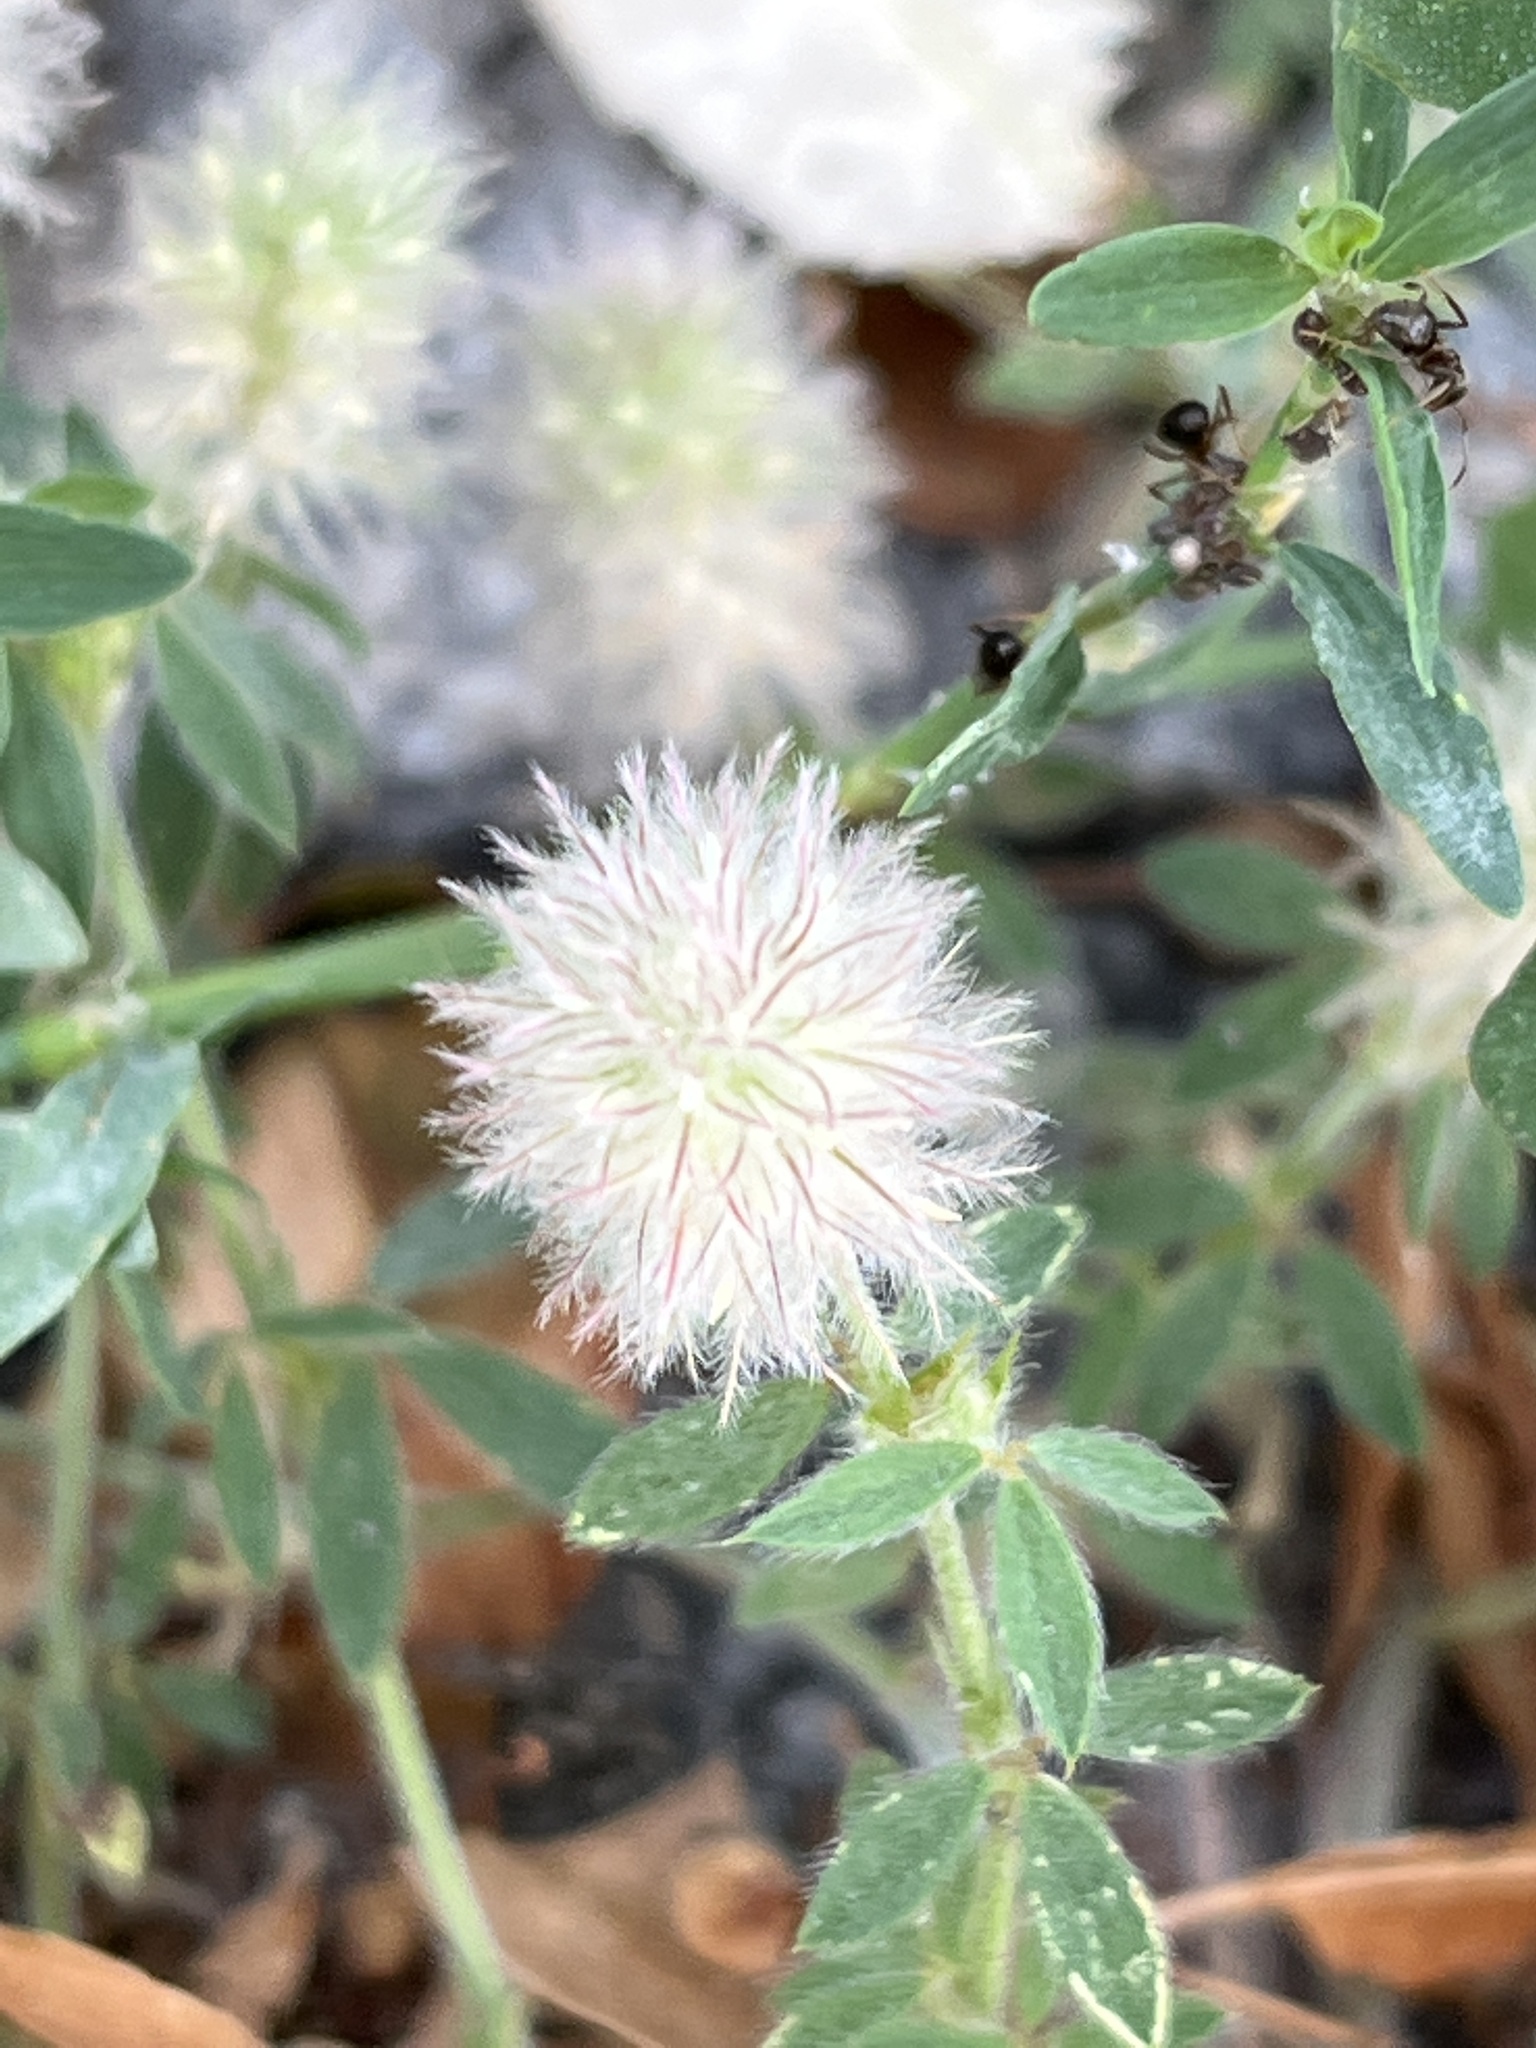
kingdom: Plantae
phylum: Tracheophyta
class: Magnoliopsida
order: Fabales
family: Fabaceae
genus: Trifolium
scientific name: Trifolium arvense
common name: Hare's-foot clover
